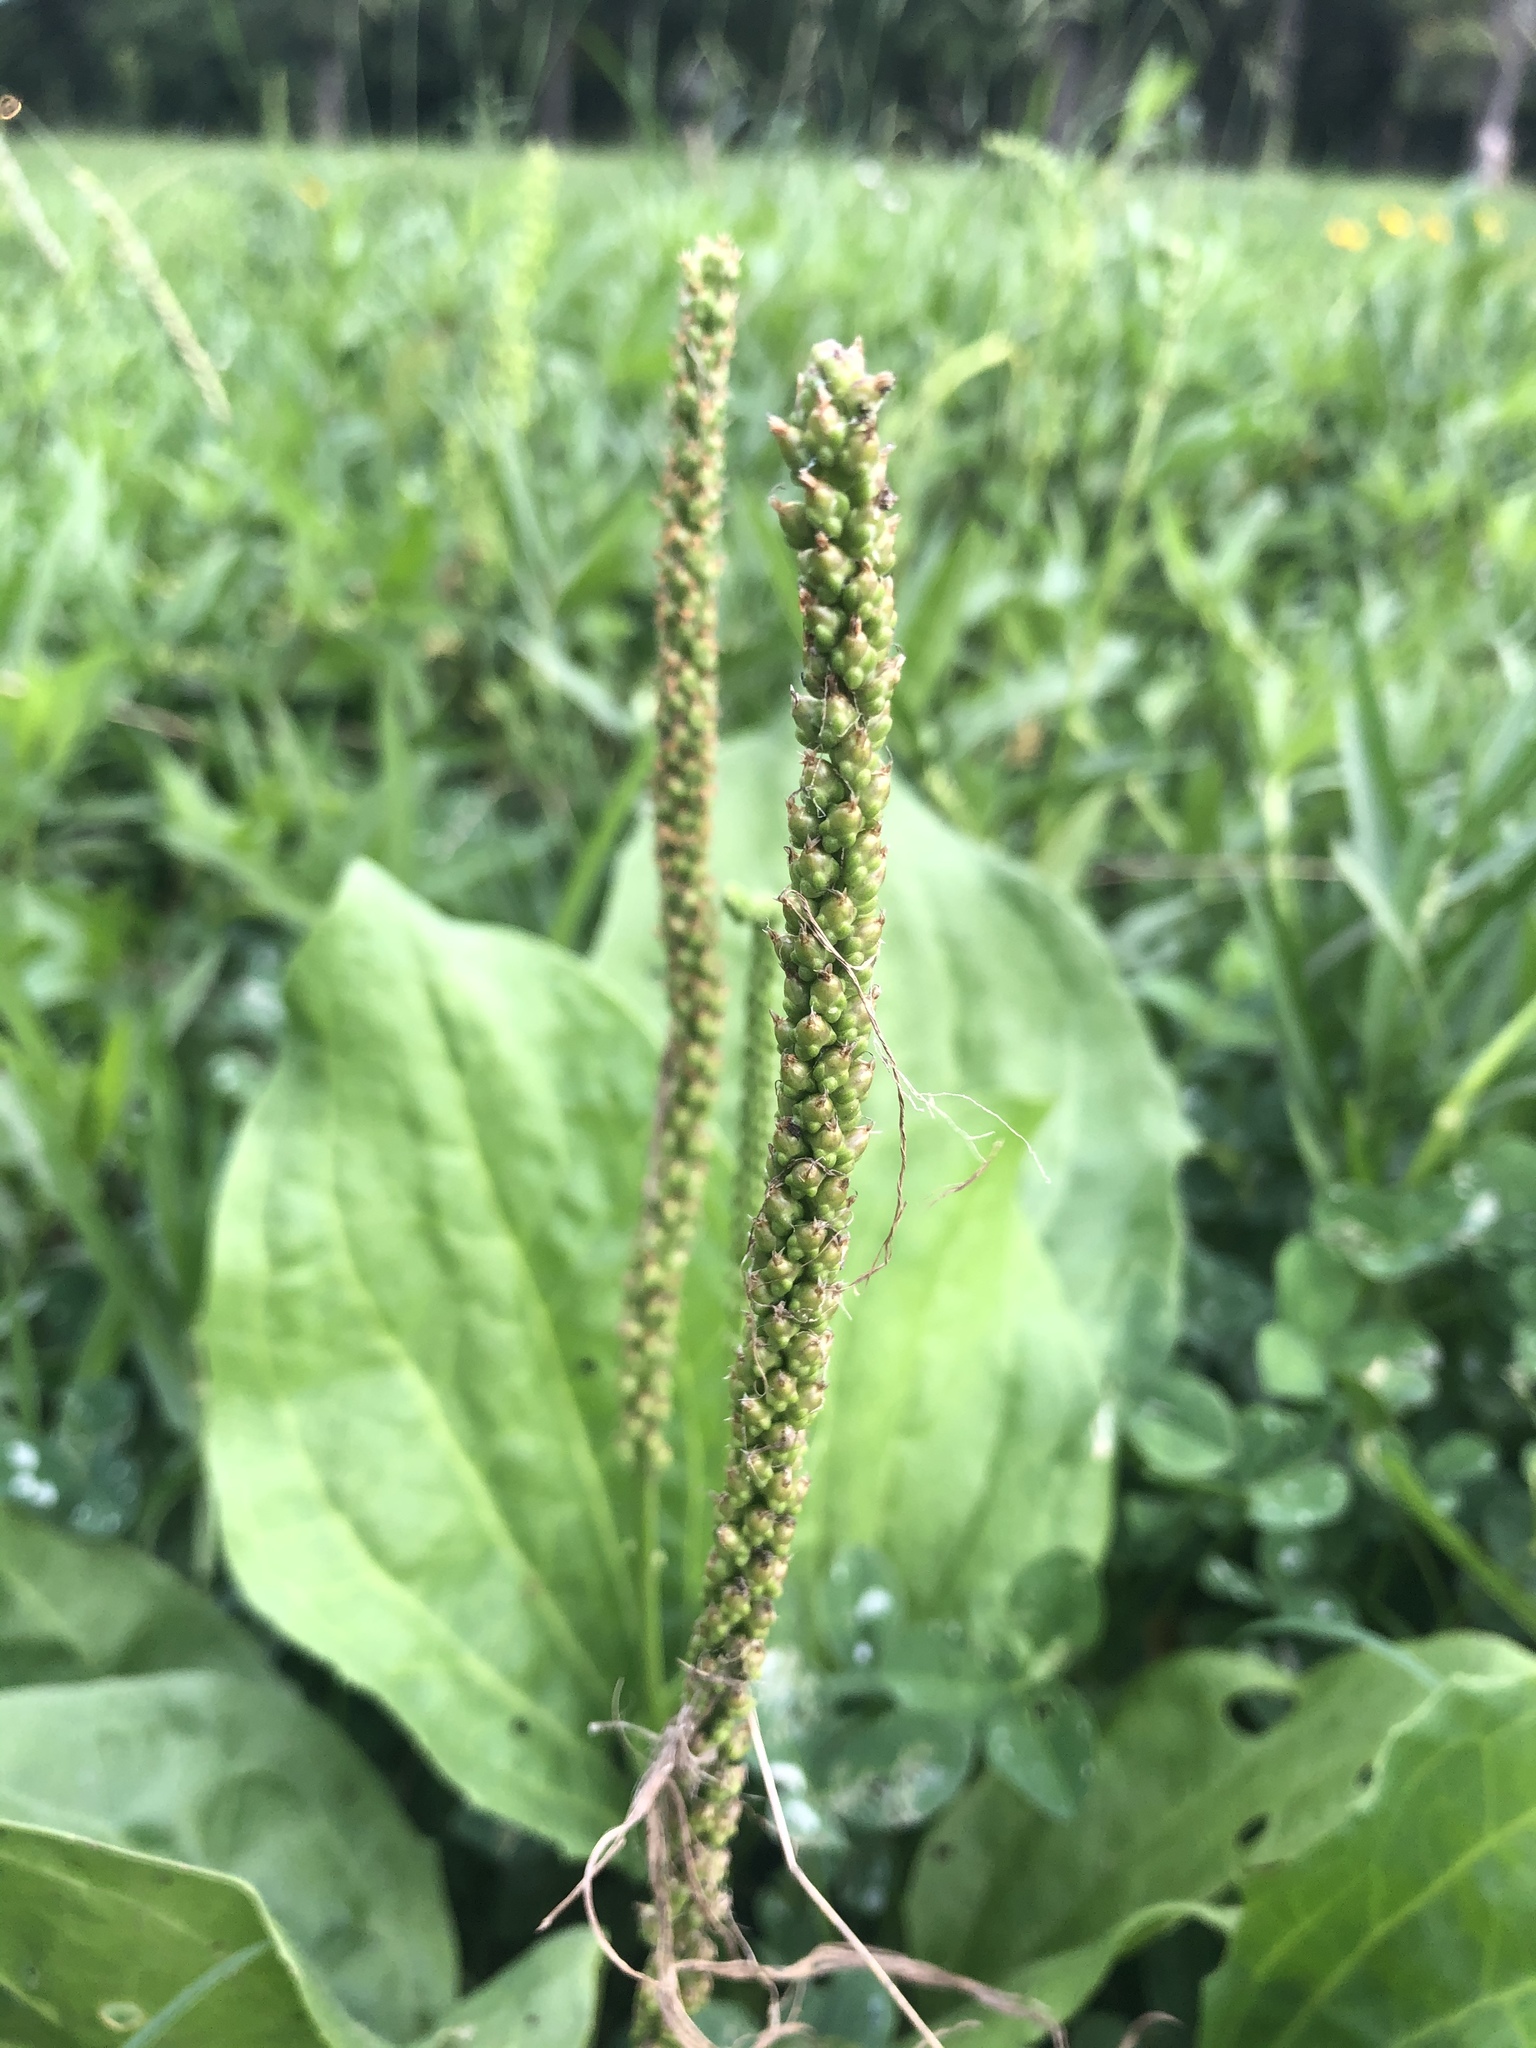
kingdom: Plantae
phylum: Tracheophyta
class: Magnoliopsida
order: Lamiales
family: Plantaginaceae
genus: Plantago
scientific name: Plantago major
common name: Common plantain
